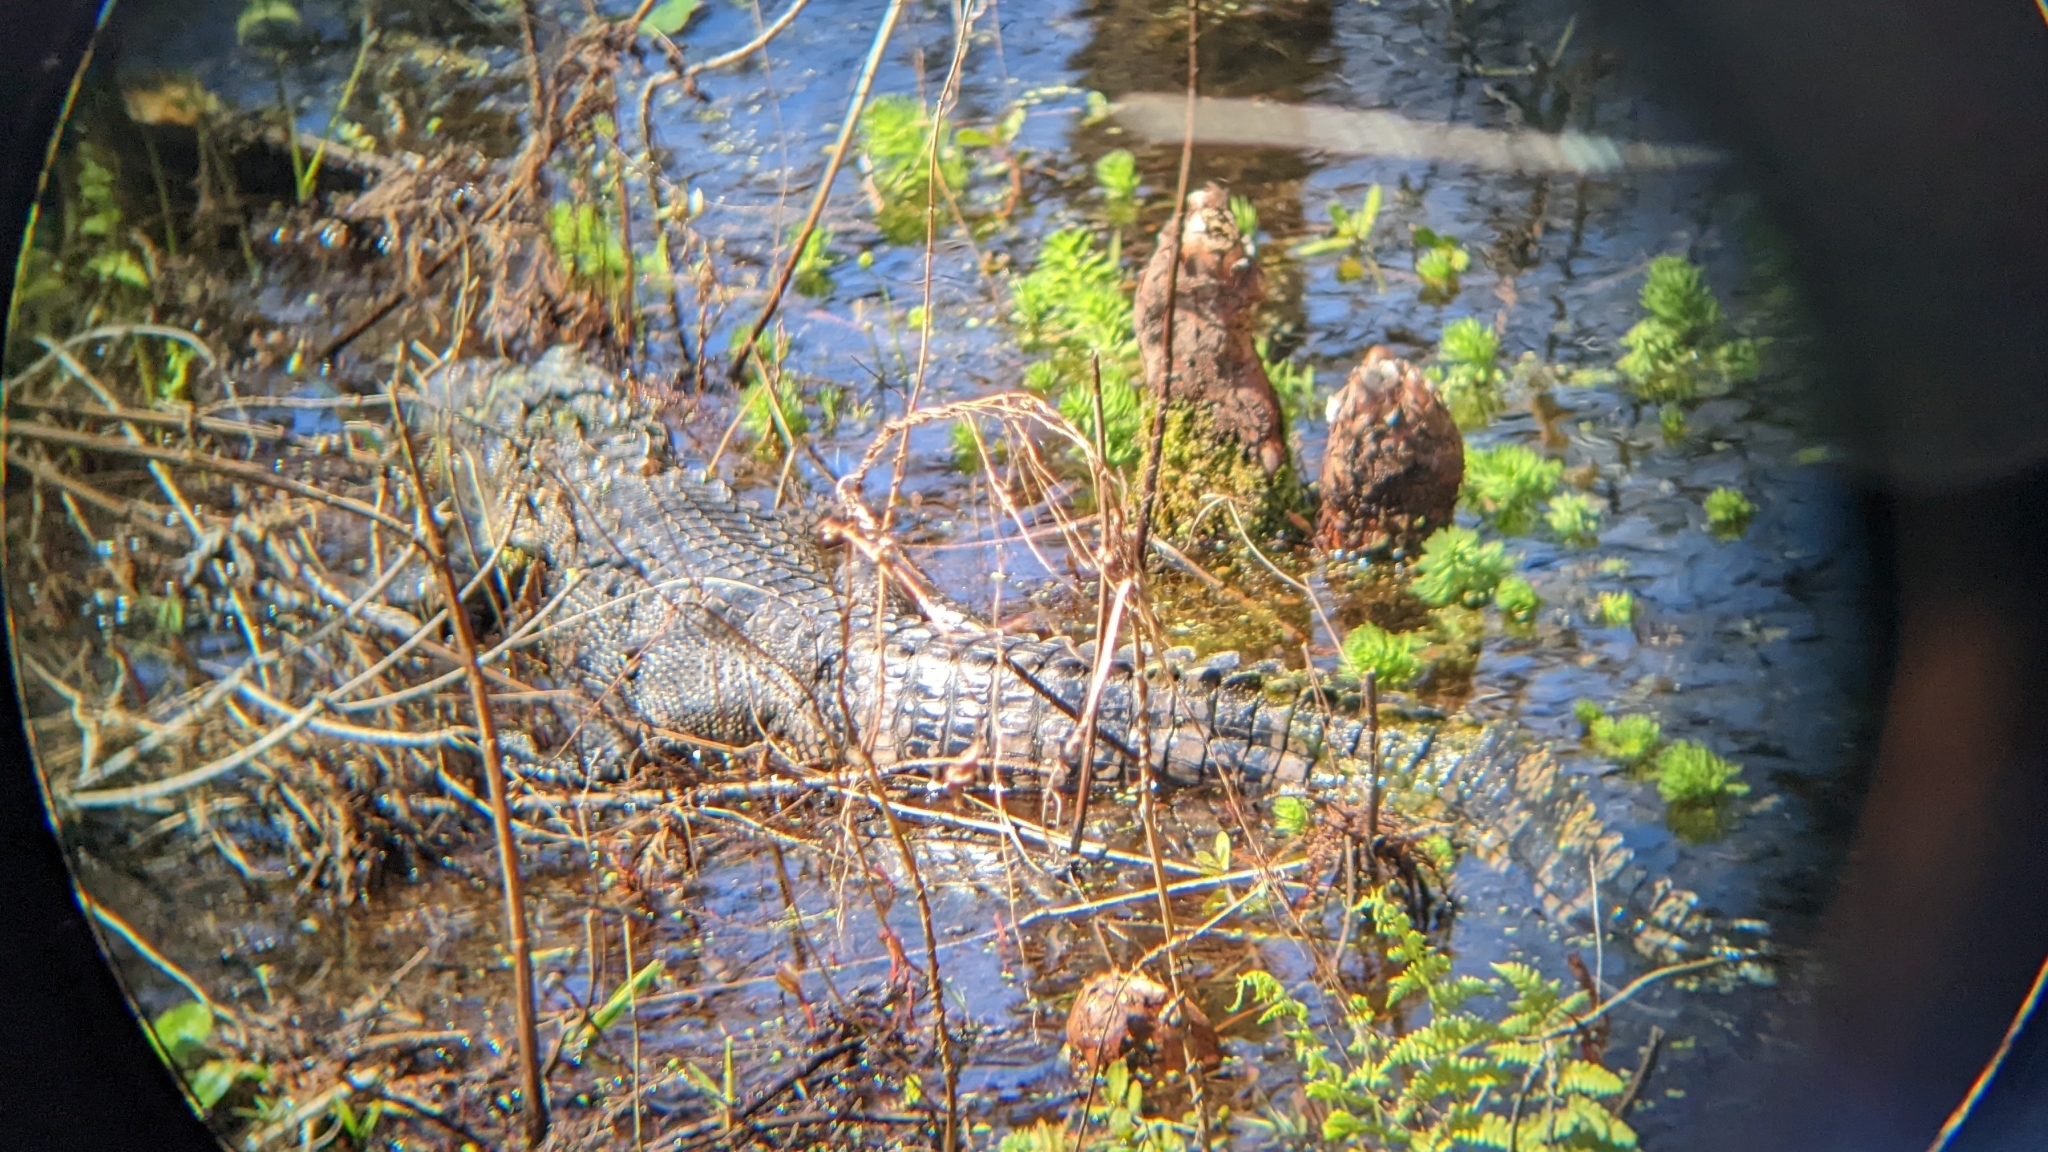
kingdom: Animalia
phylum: Chordata
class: Crocodylia
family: Alligatoridae
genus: Alligator
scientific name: Alligator mississippiensis
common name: American alligator
